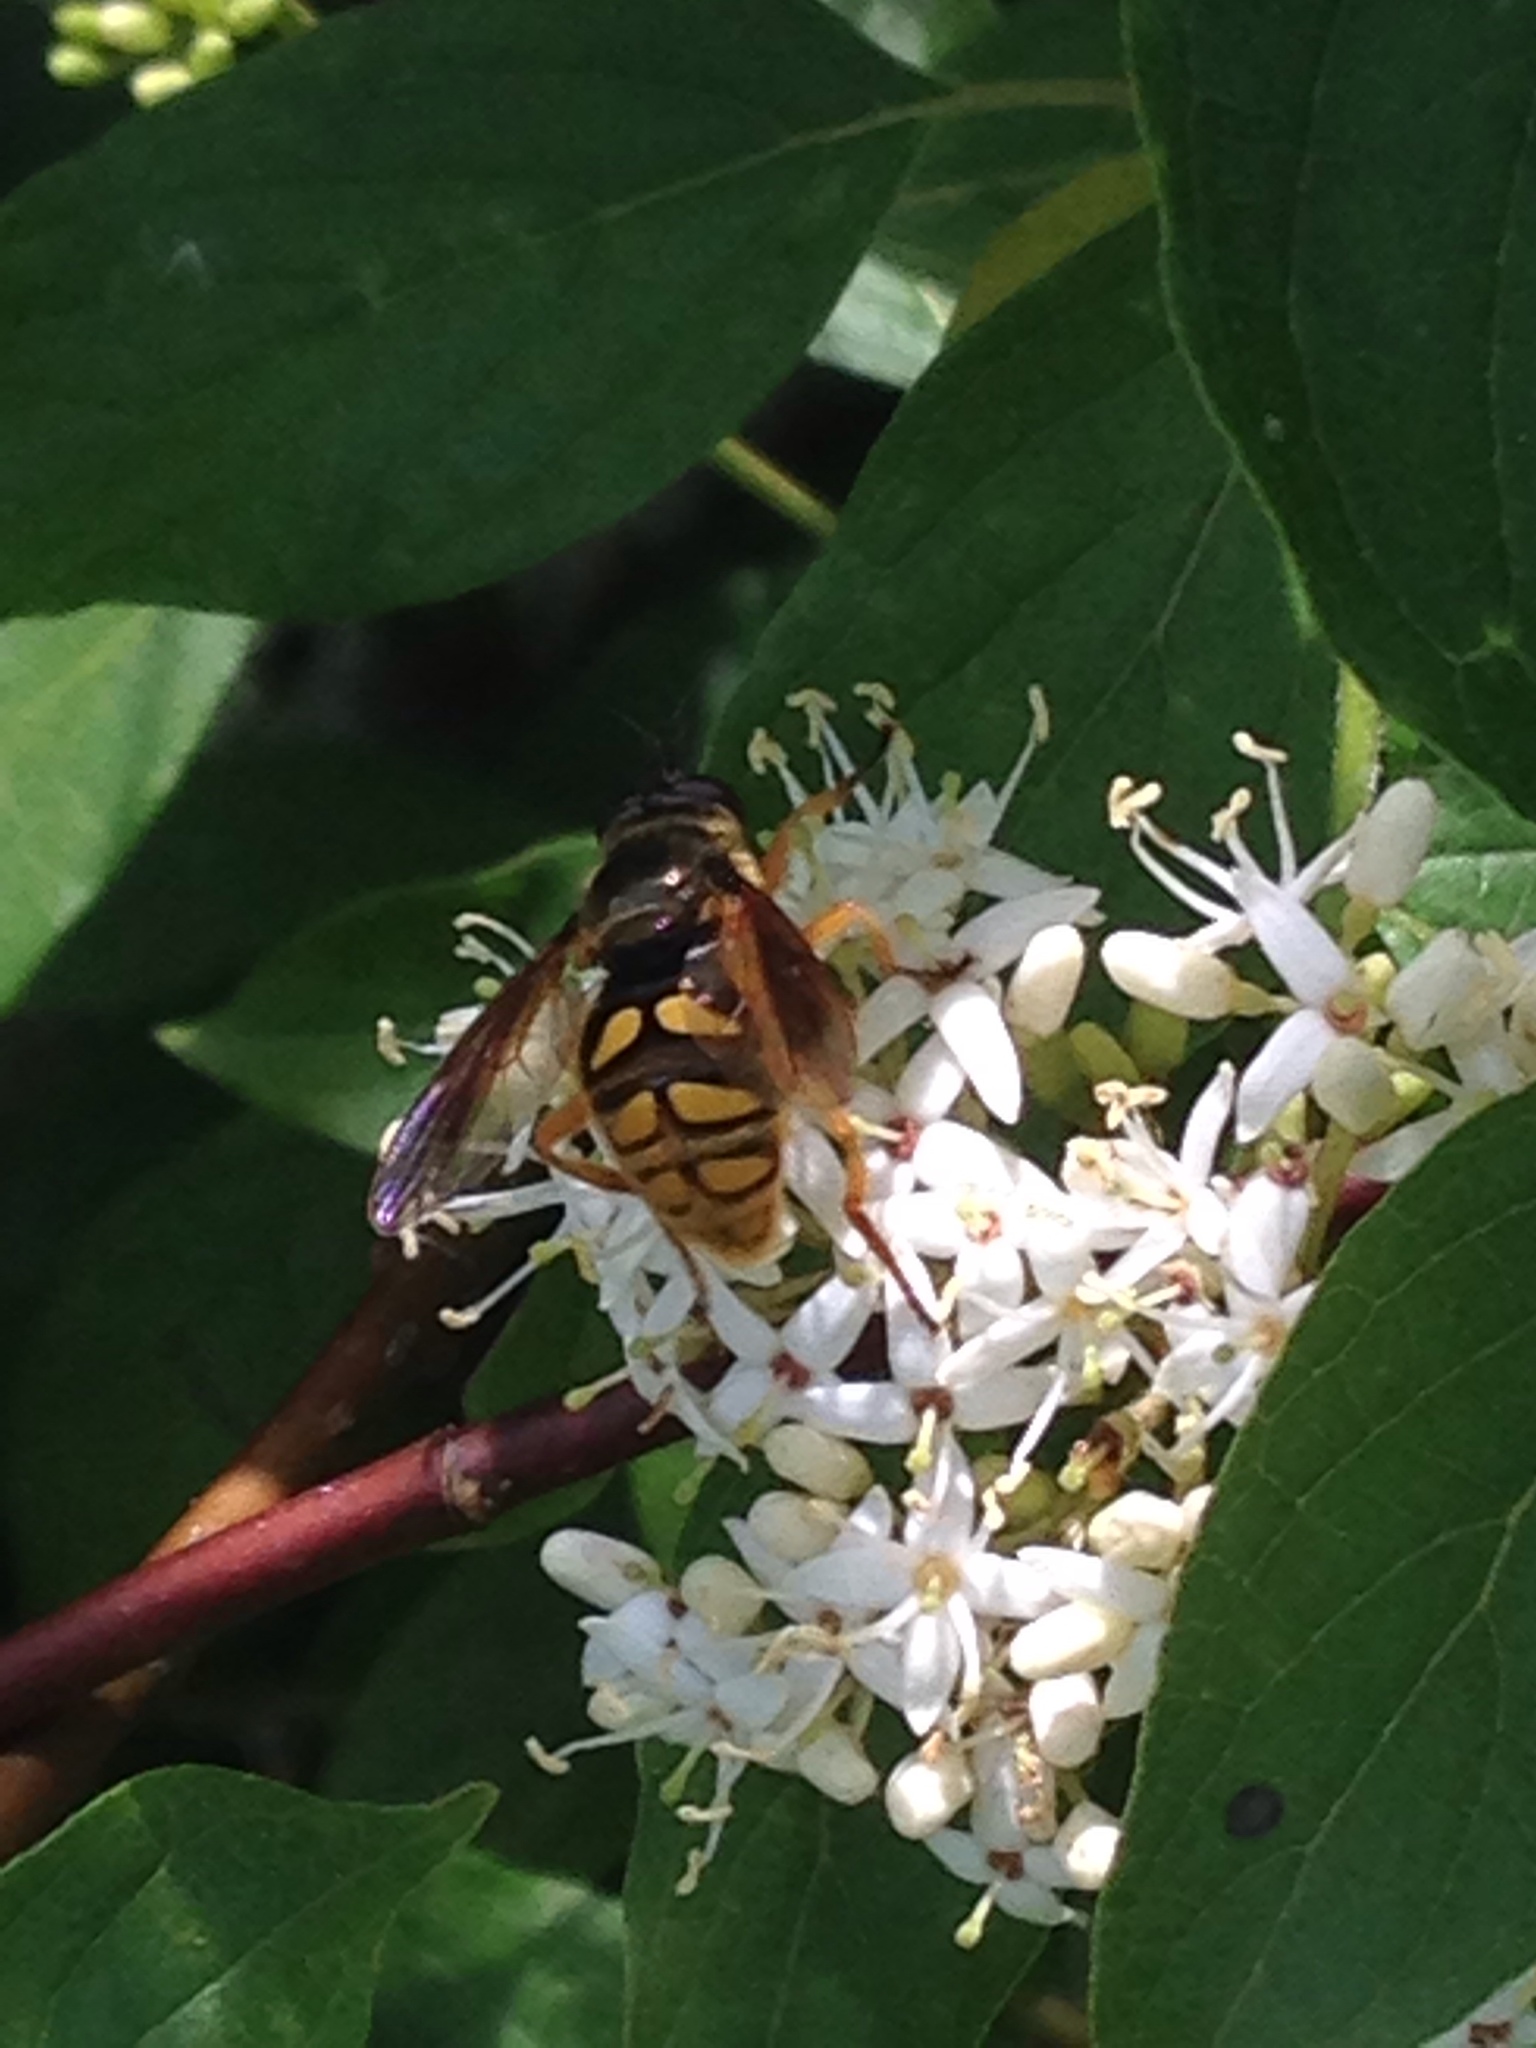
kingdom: Animalia
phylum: Arthropoda
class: Insecta
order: Diptera
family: Syrphidae
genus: Somula
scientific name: Somula decora
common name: Spotted wood fly
